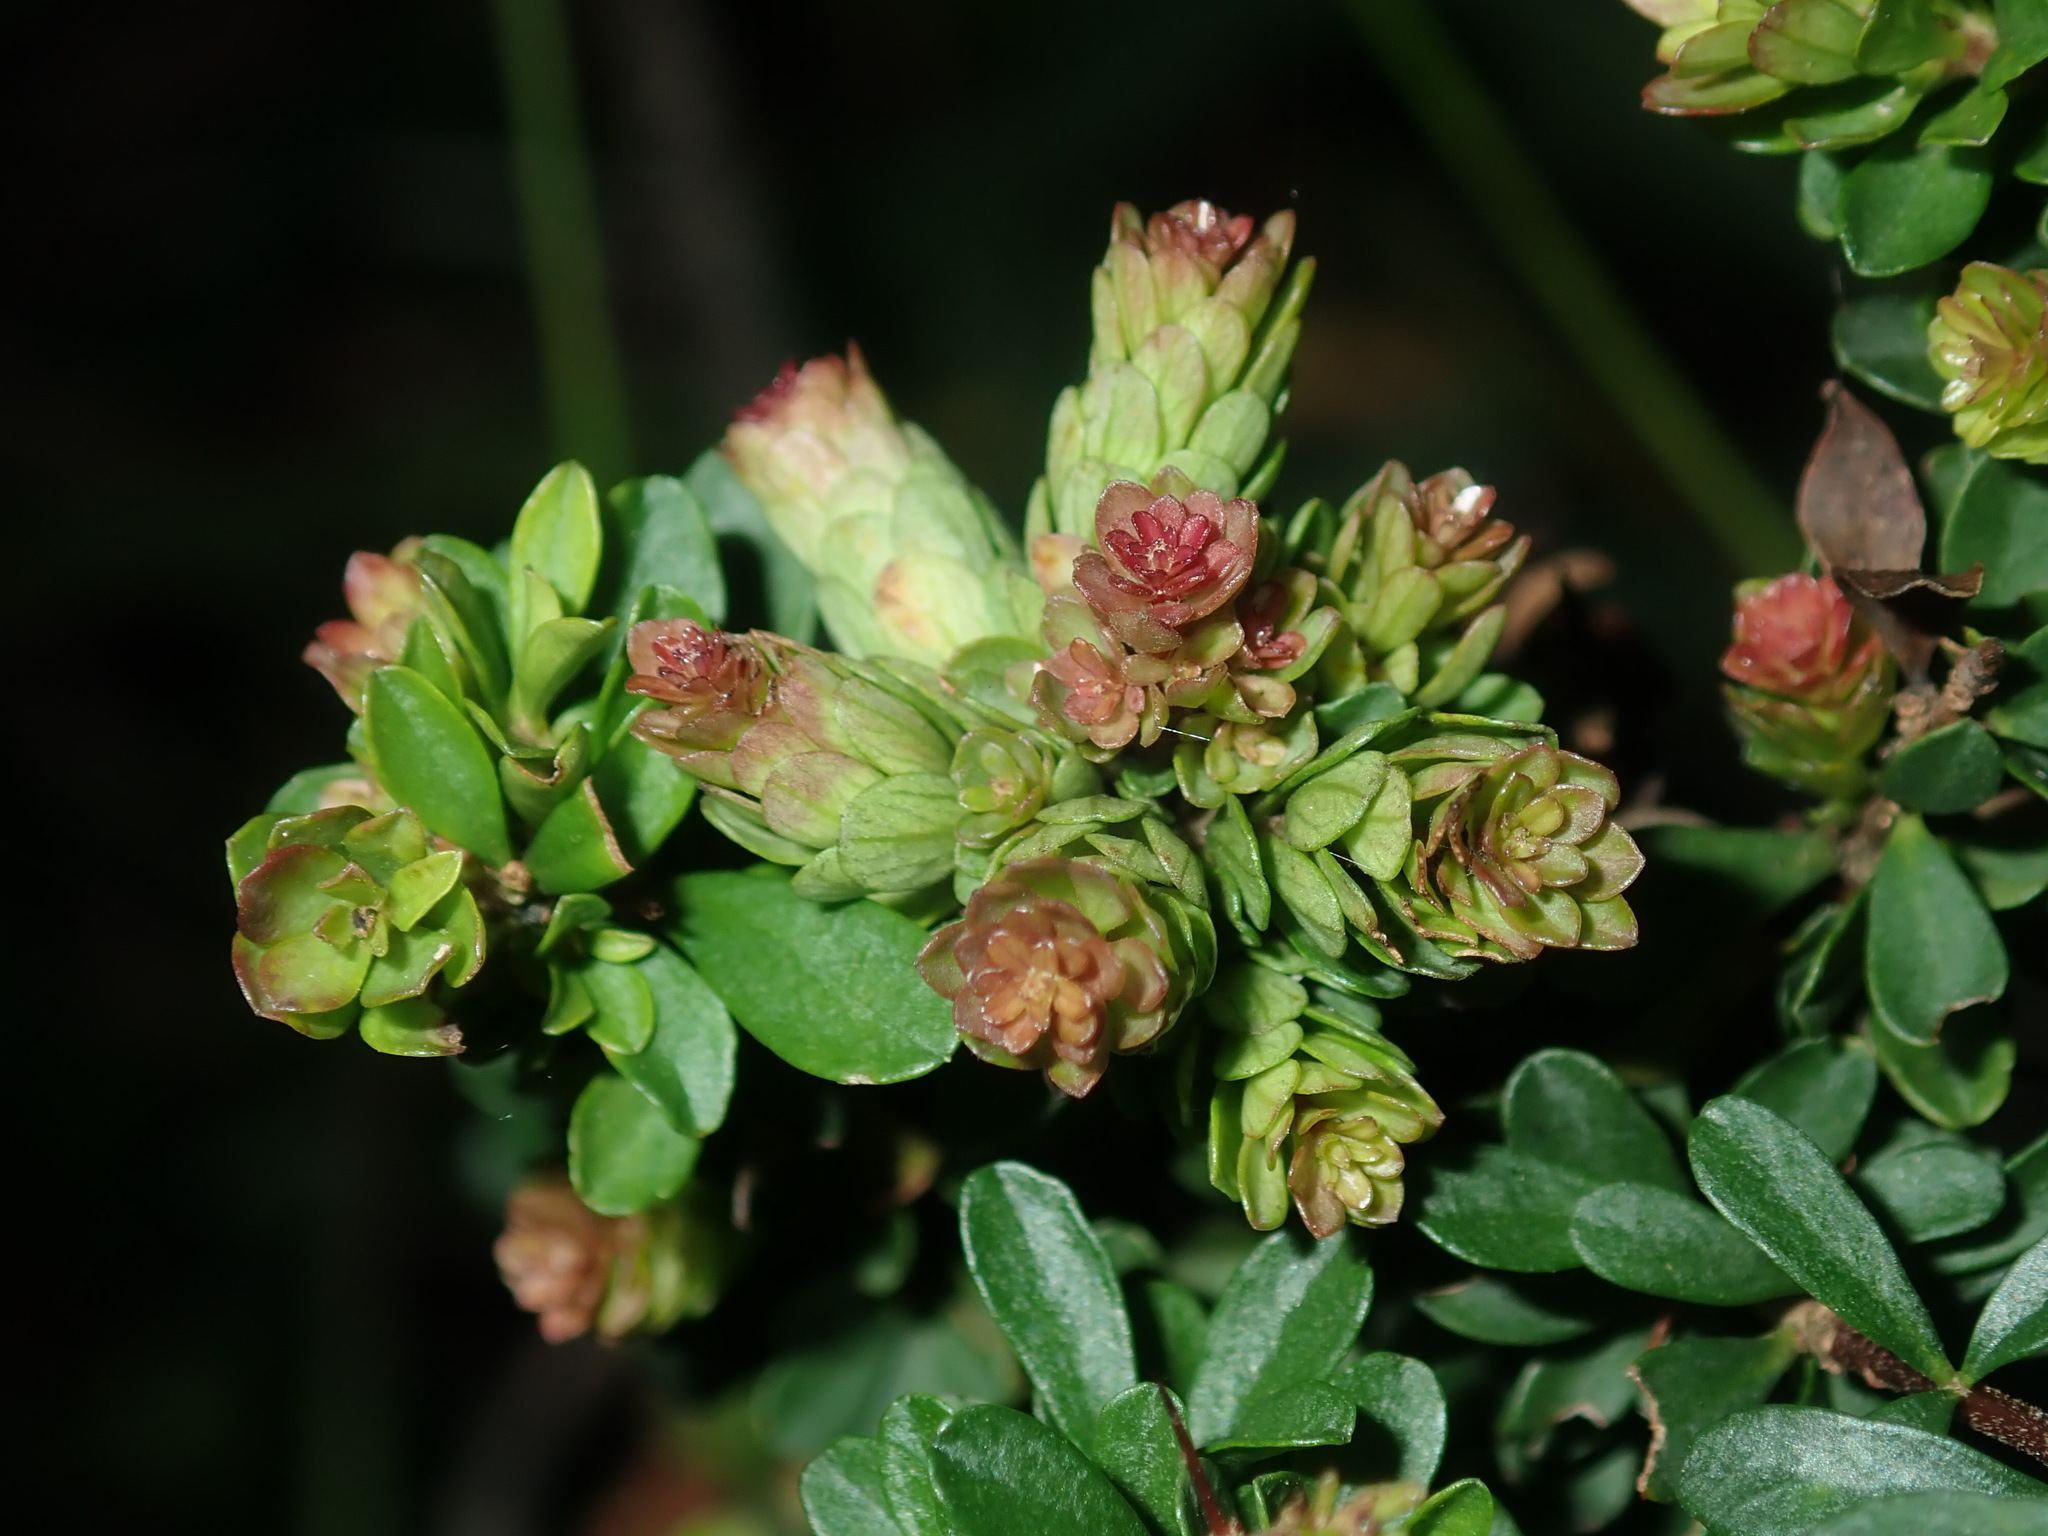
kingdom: Plantae
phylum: Tracheophyta
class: Magnoliopsida
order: Apiales
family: Pittosporaceae
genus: Bursaria
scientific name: Bursaria spinosa
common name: Australian blackthorn
